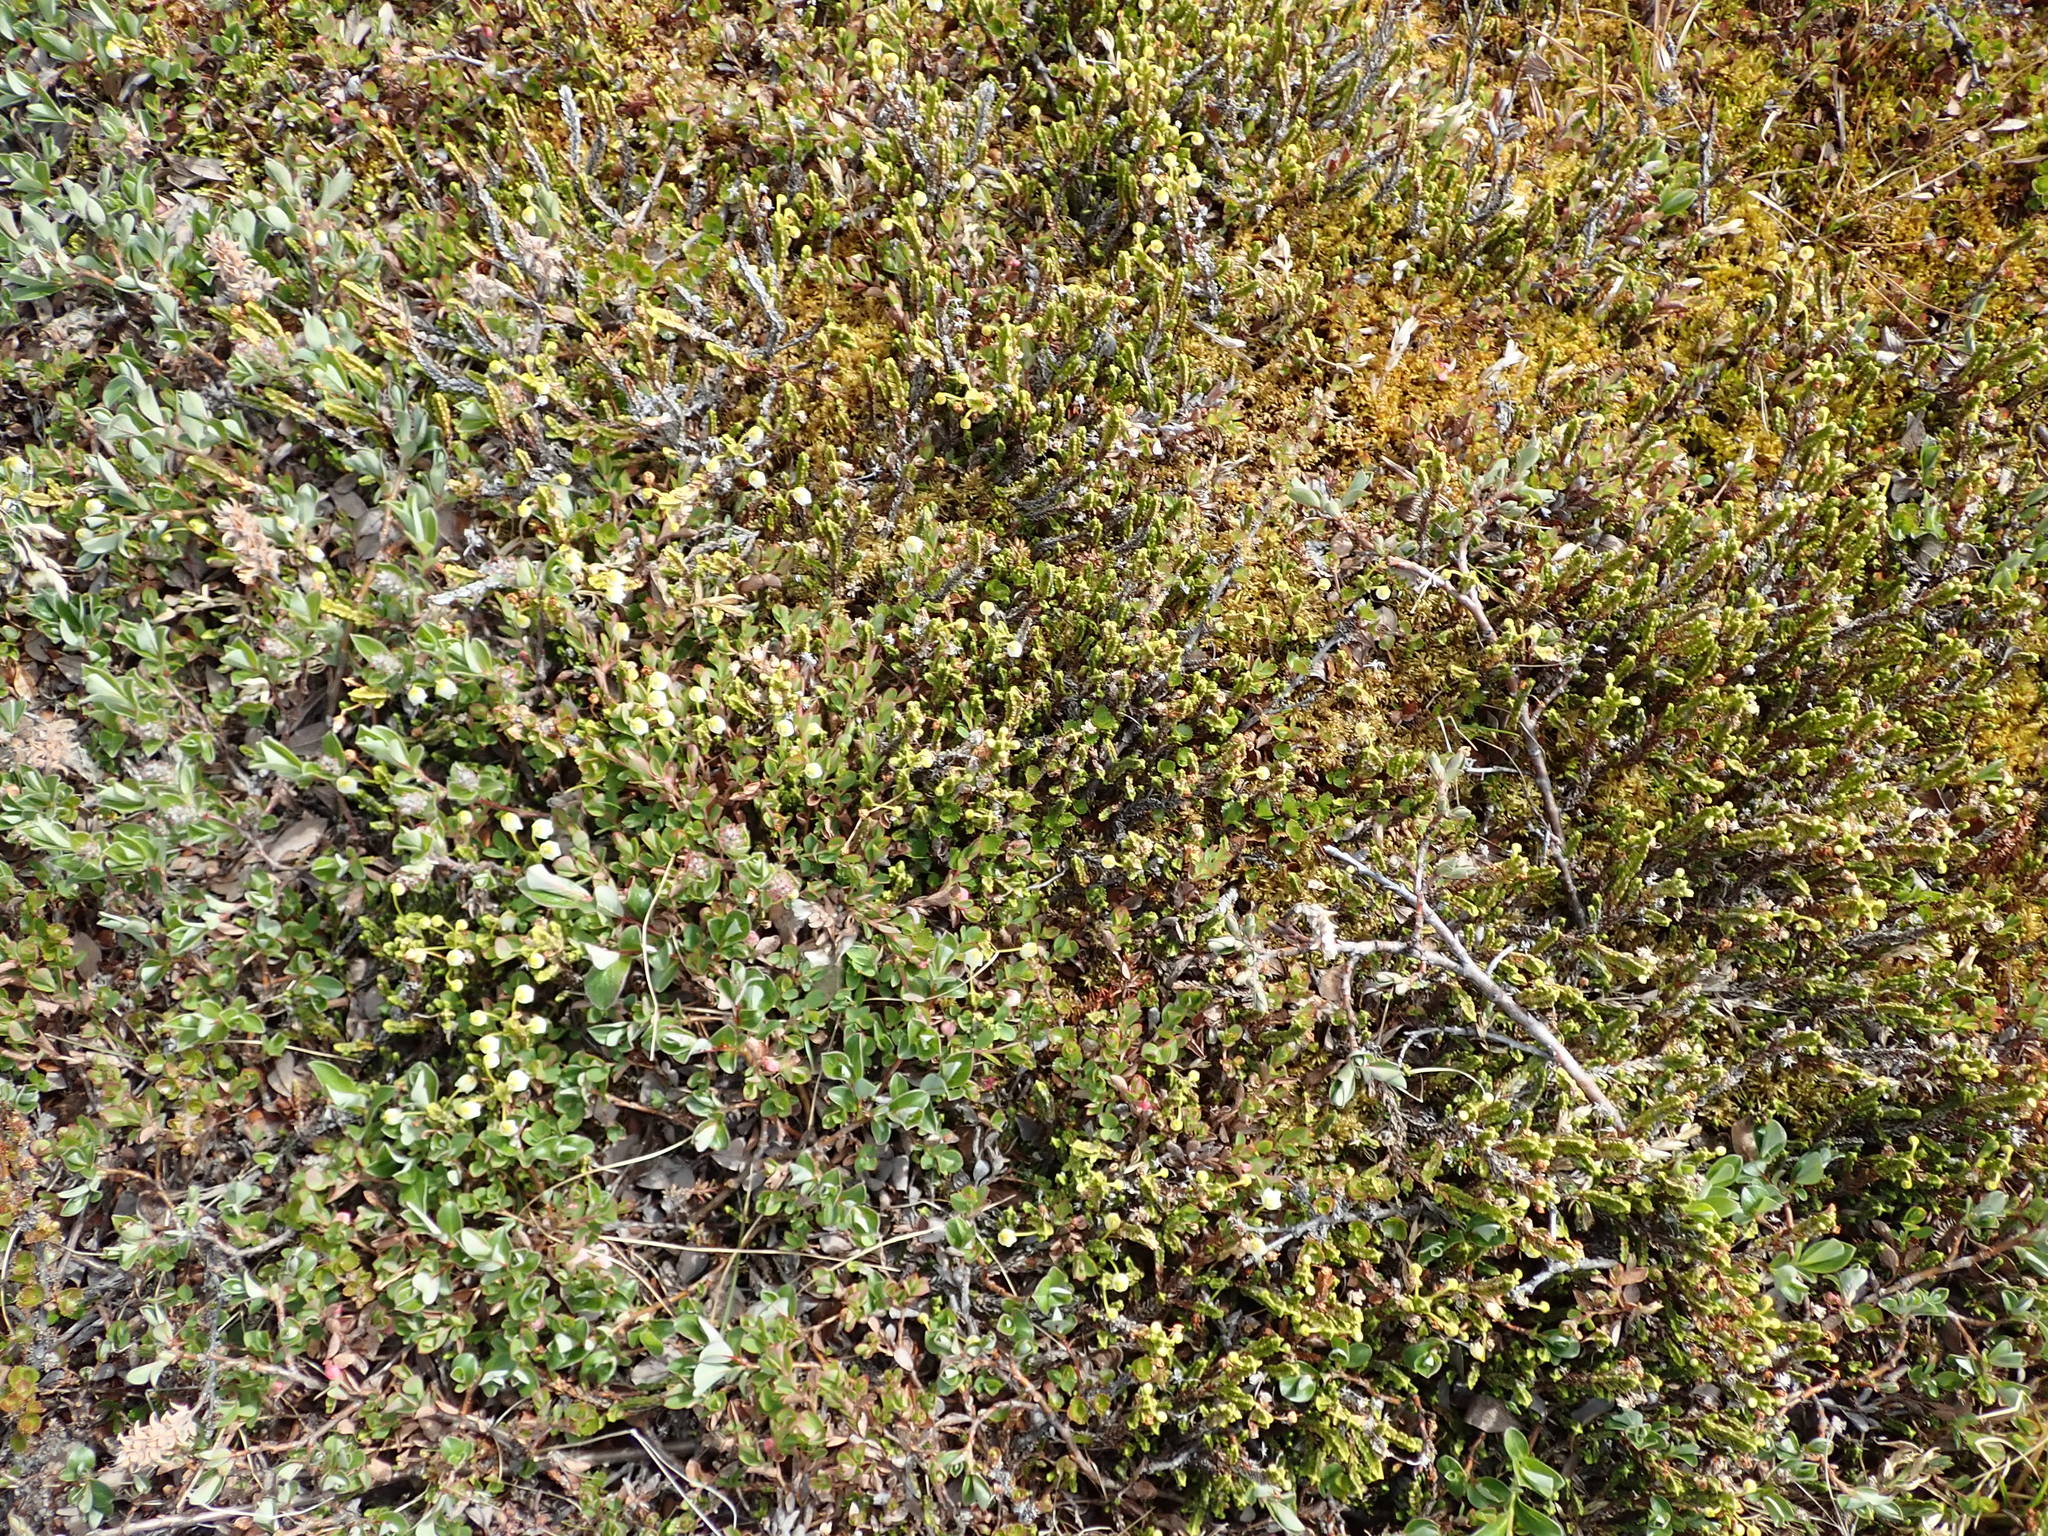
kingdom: Plantae
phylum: Tracheophyta
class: Magnoliopsida
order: Ericales
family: Ericaceae
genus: Cassiope
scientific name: Cassiope tetragona
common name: Arctic bell heather
